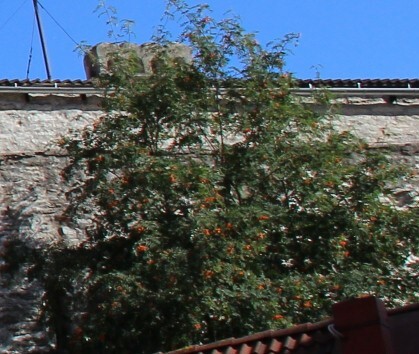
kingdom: Plantae
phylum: Tracheophyta
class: Magnoliopsida
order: Rosales
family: Rosaceae
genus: Sorbus
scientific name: Sorbus aucuparia
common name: Rowan
